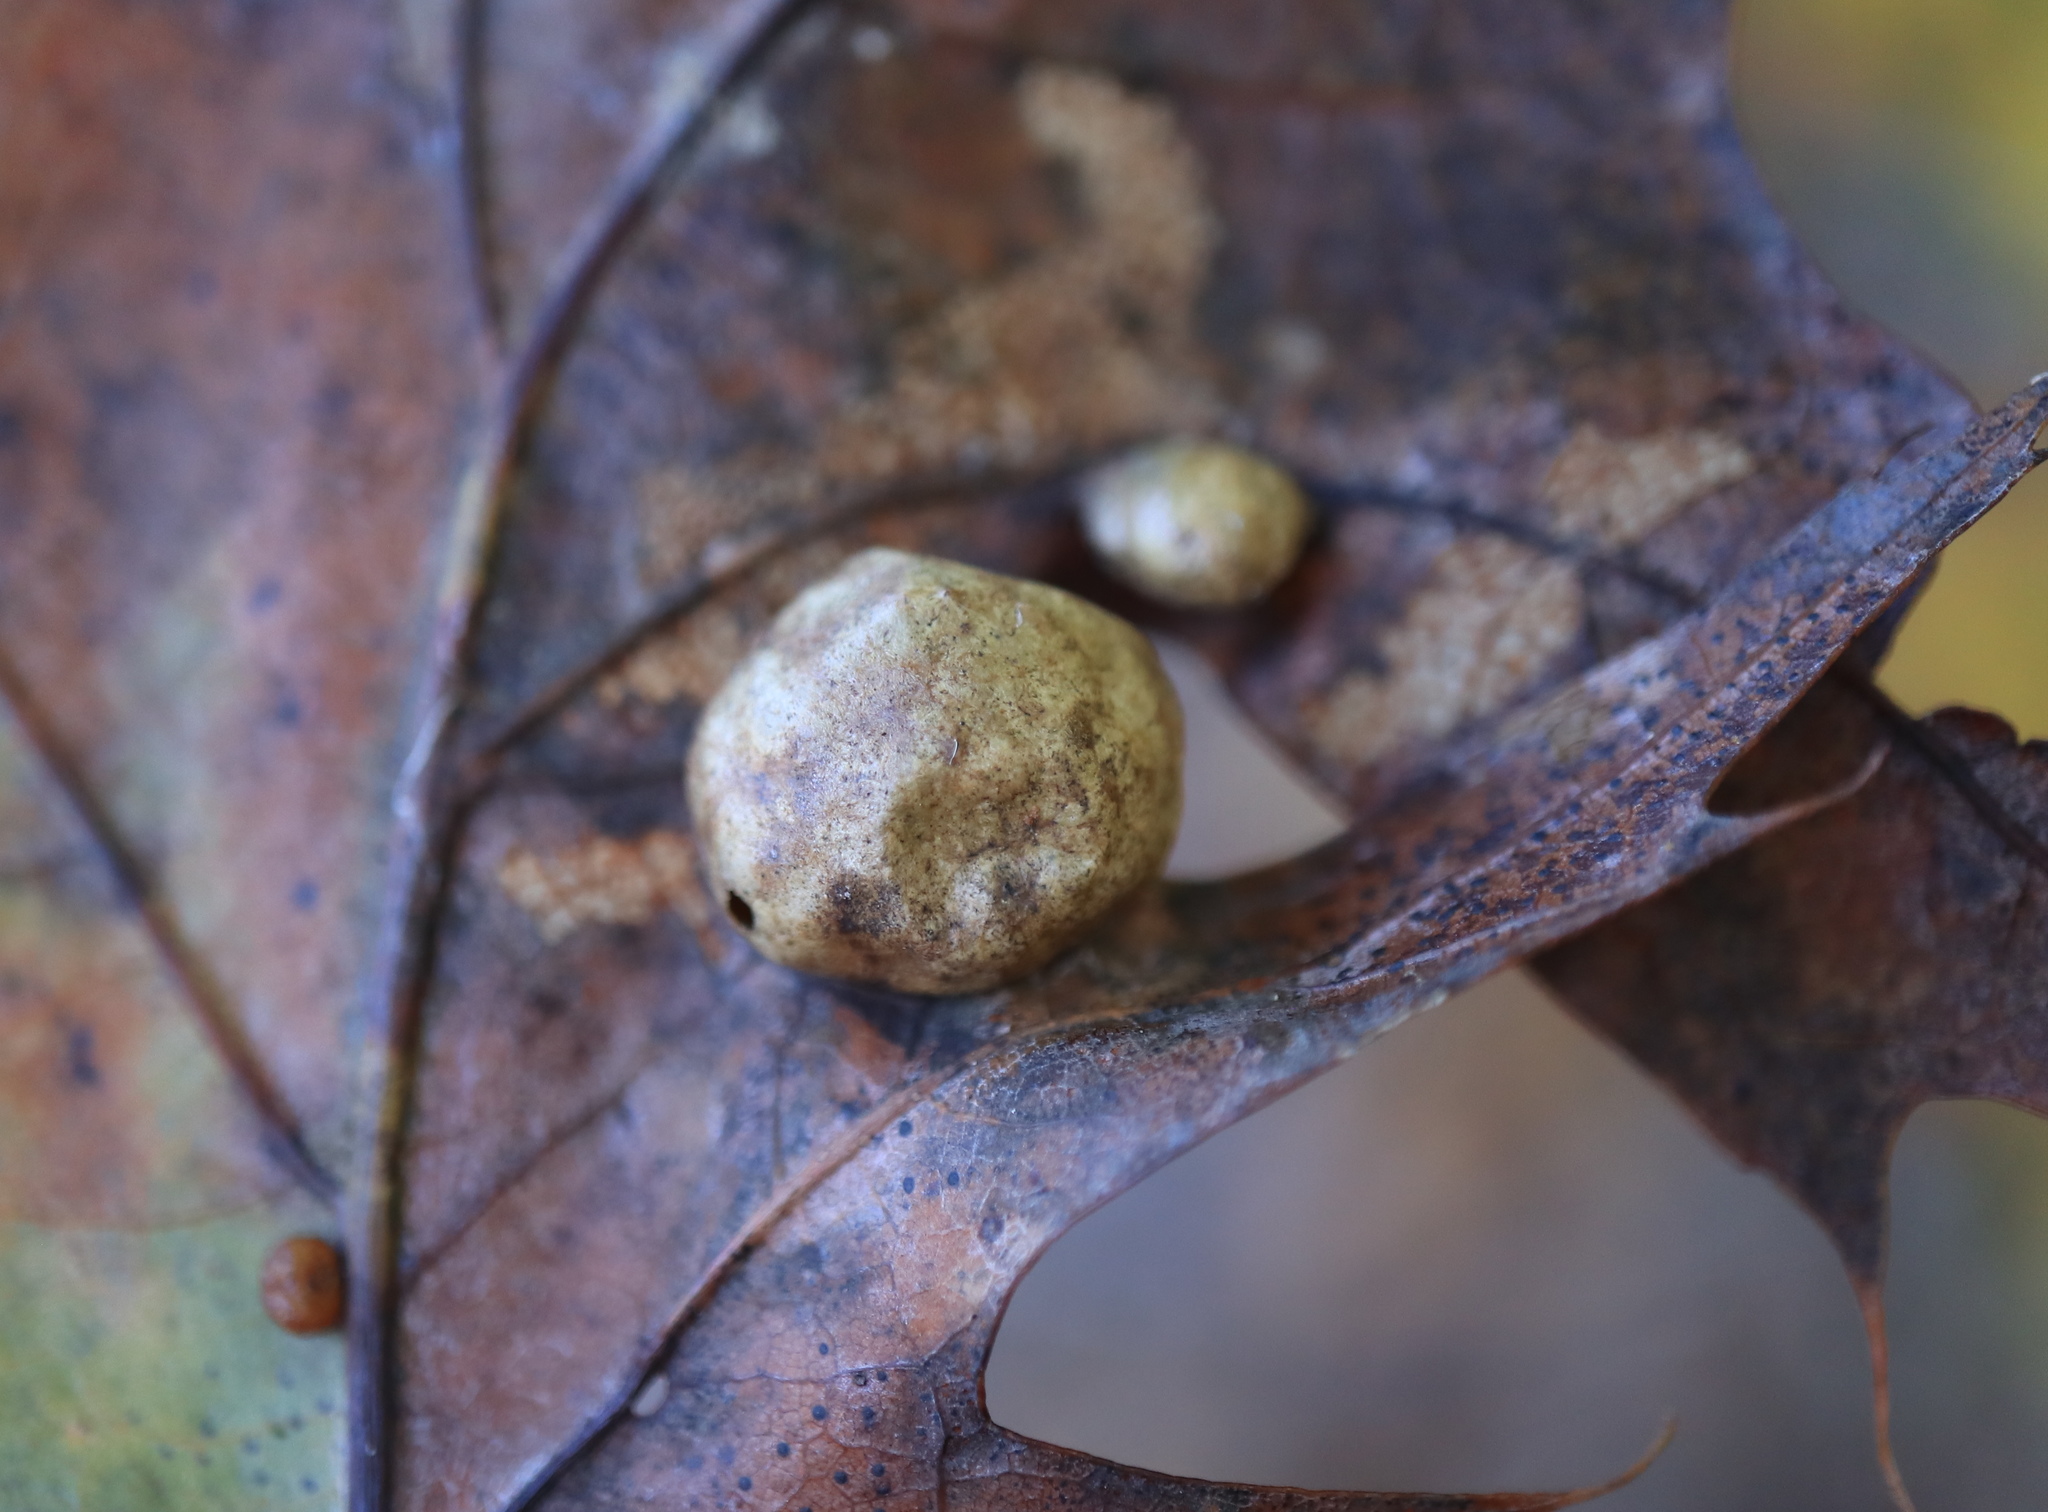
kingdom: Animalia
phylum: Arthropoda
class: Insecta
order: Hymenoptera
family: Cynipidae
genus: Amphibolips
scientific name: Amphibolips
